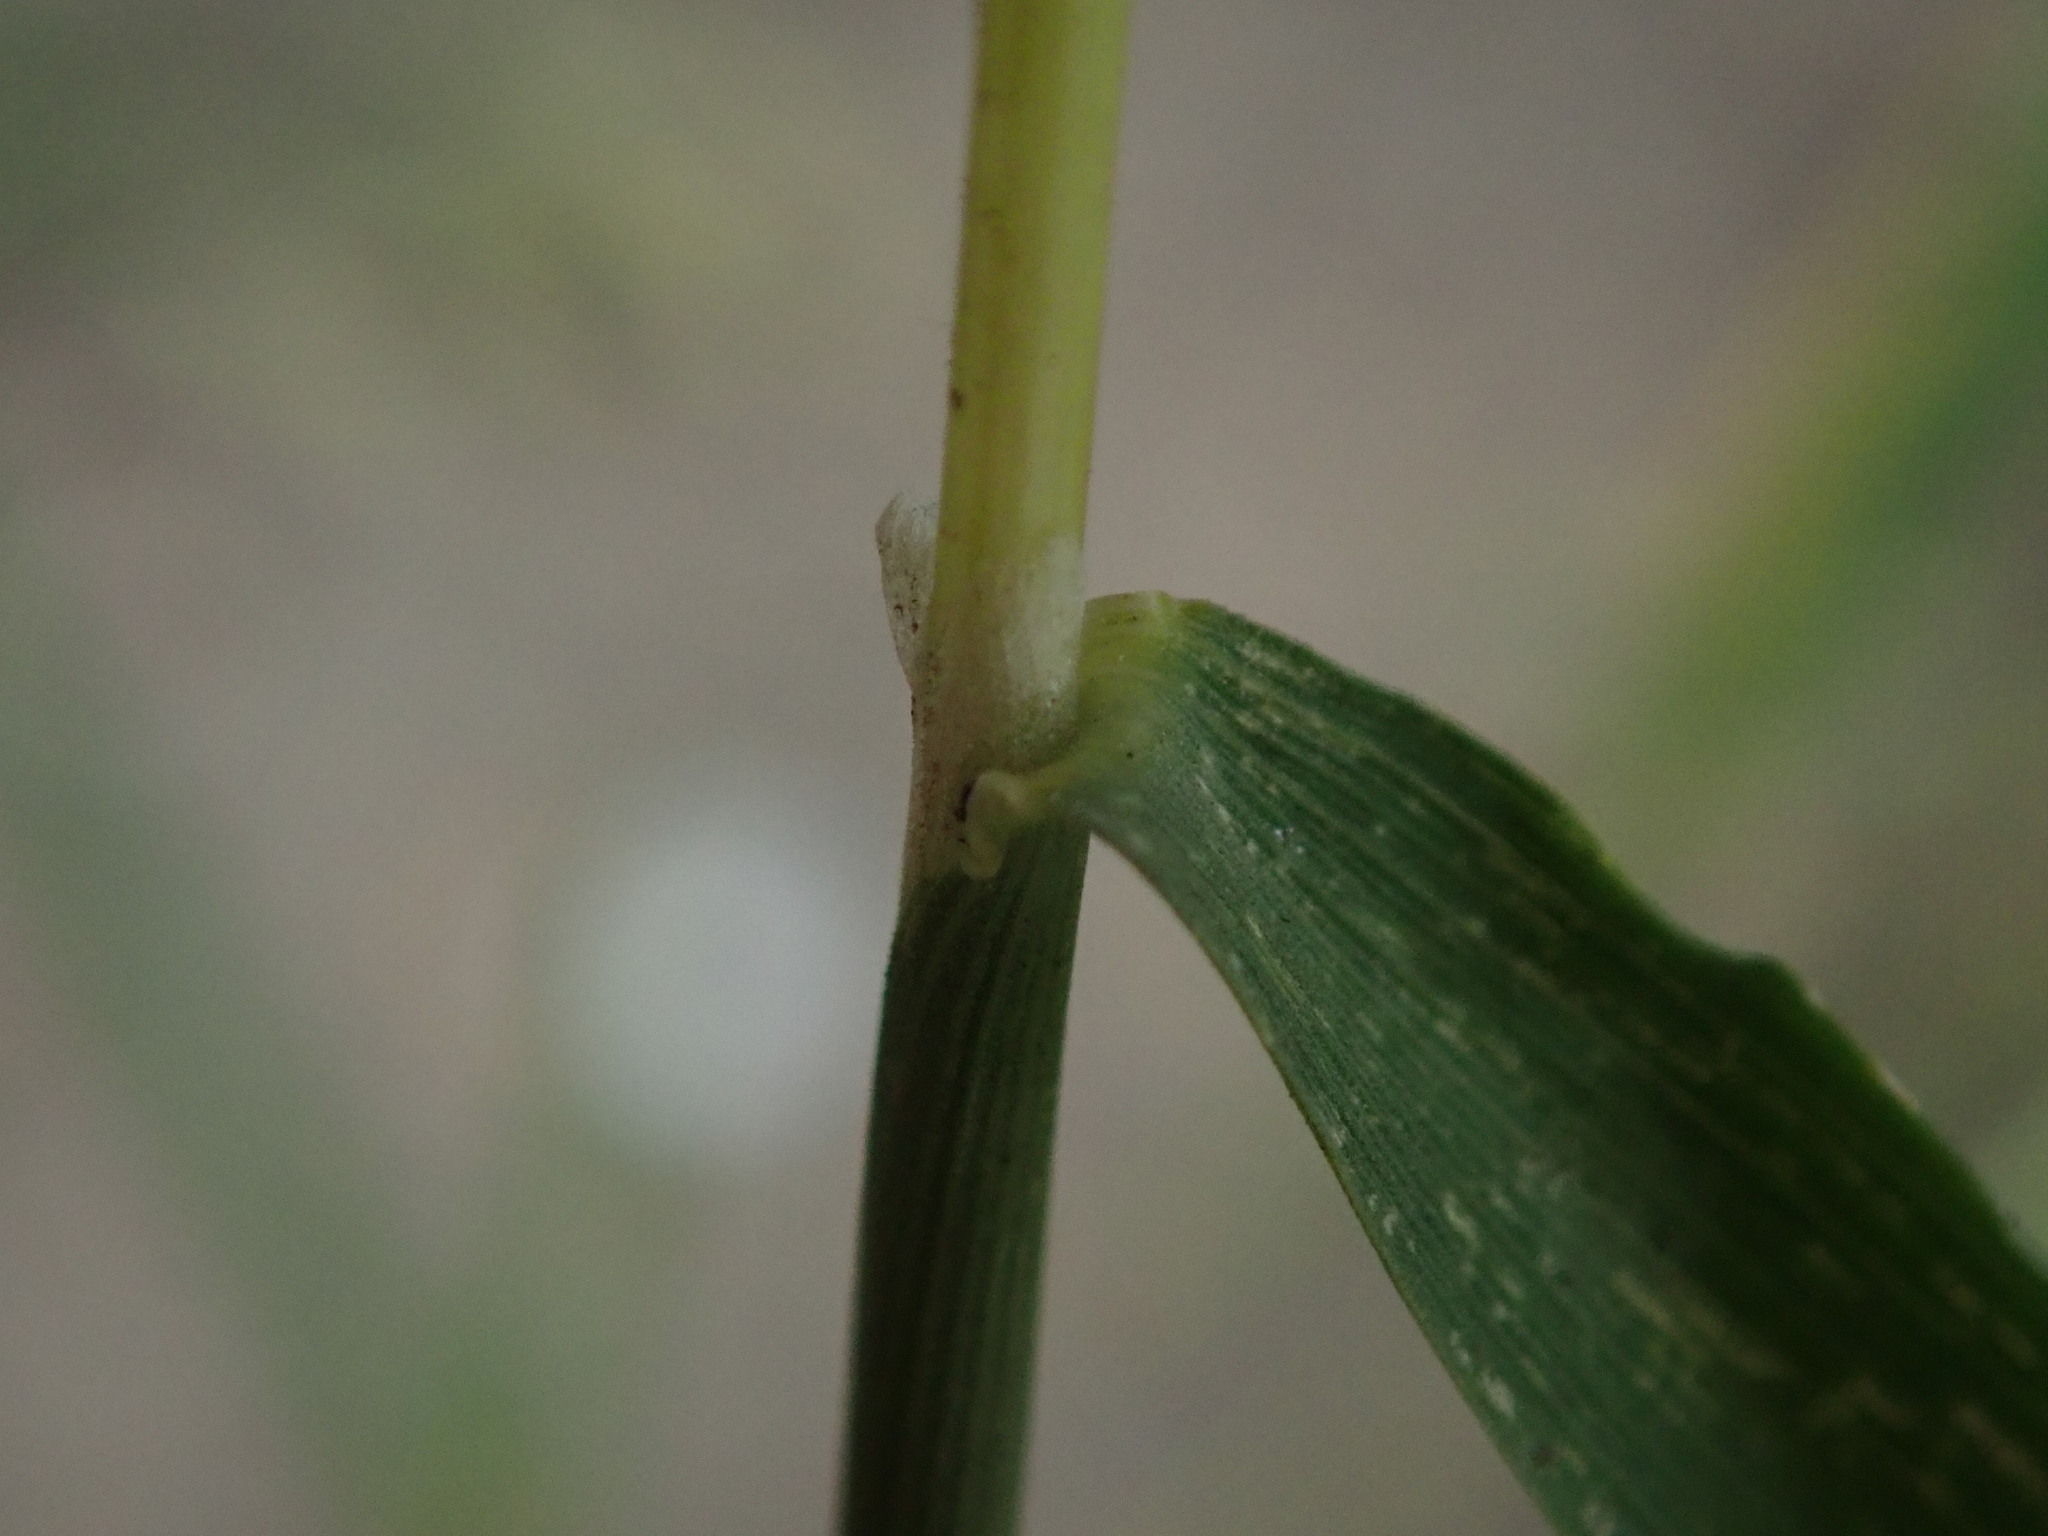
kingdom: Plantae
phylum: Tracheophyta
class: Liliopsida
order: Poales
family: Poaceae
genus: Polypogon
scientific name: Polypogon viridis
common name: Water bent
